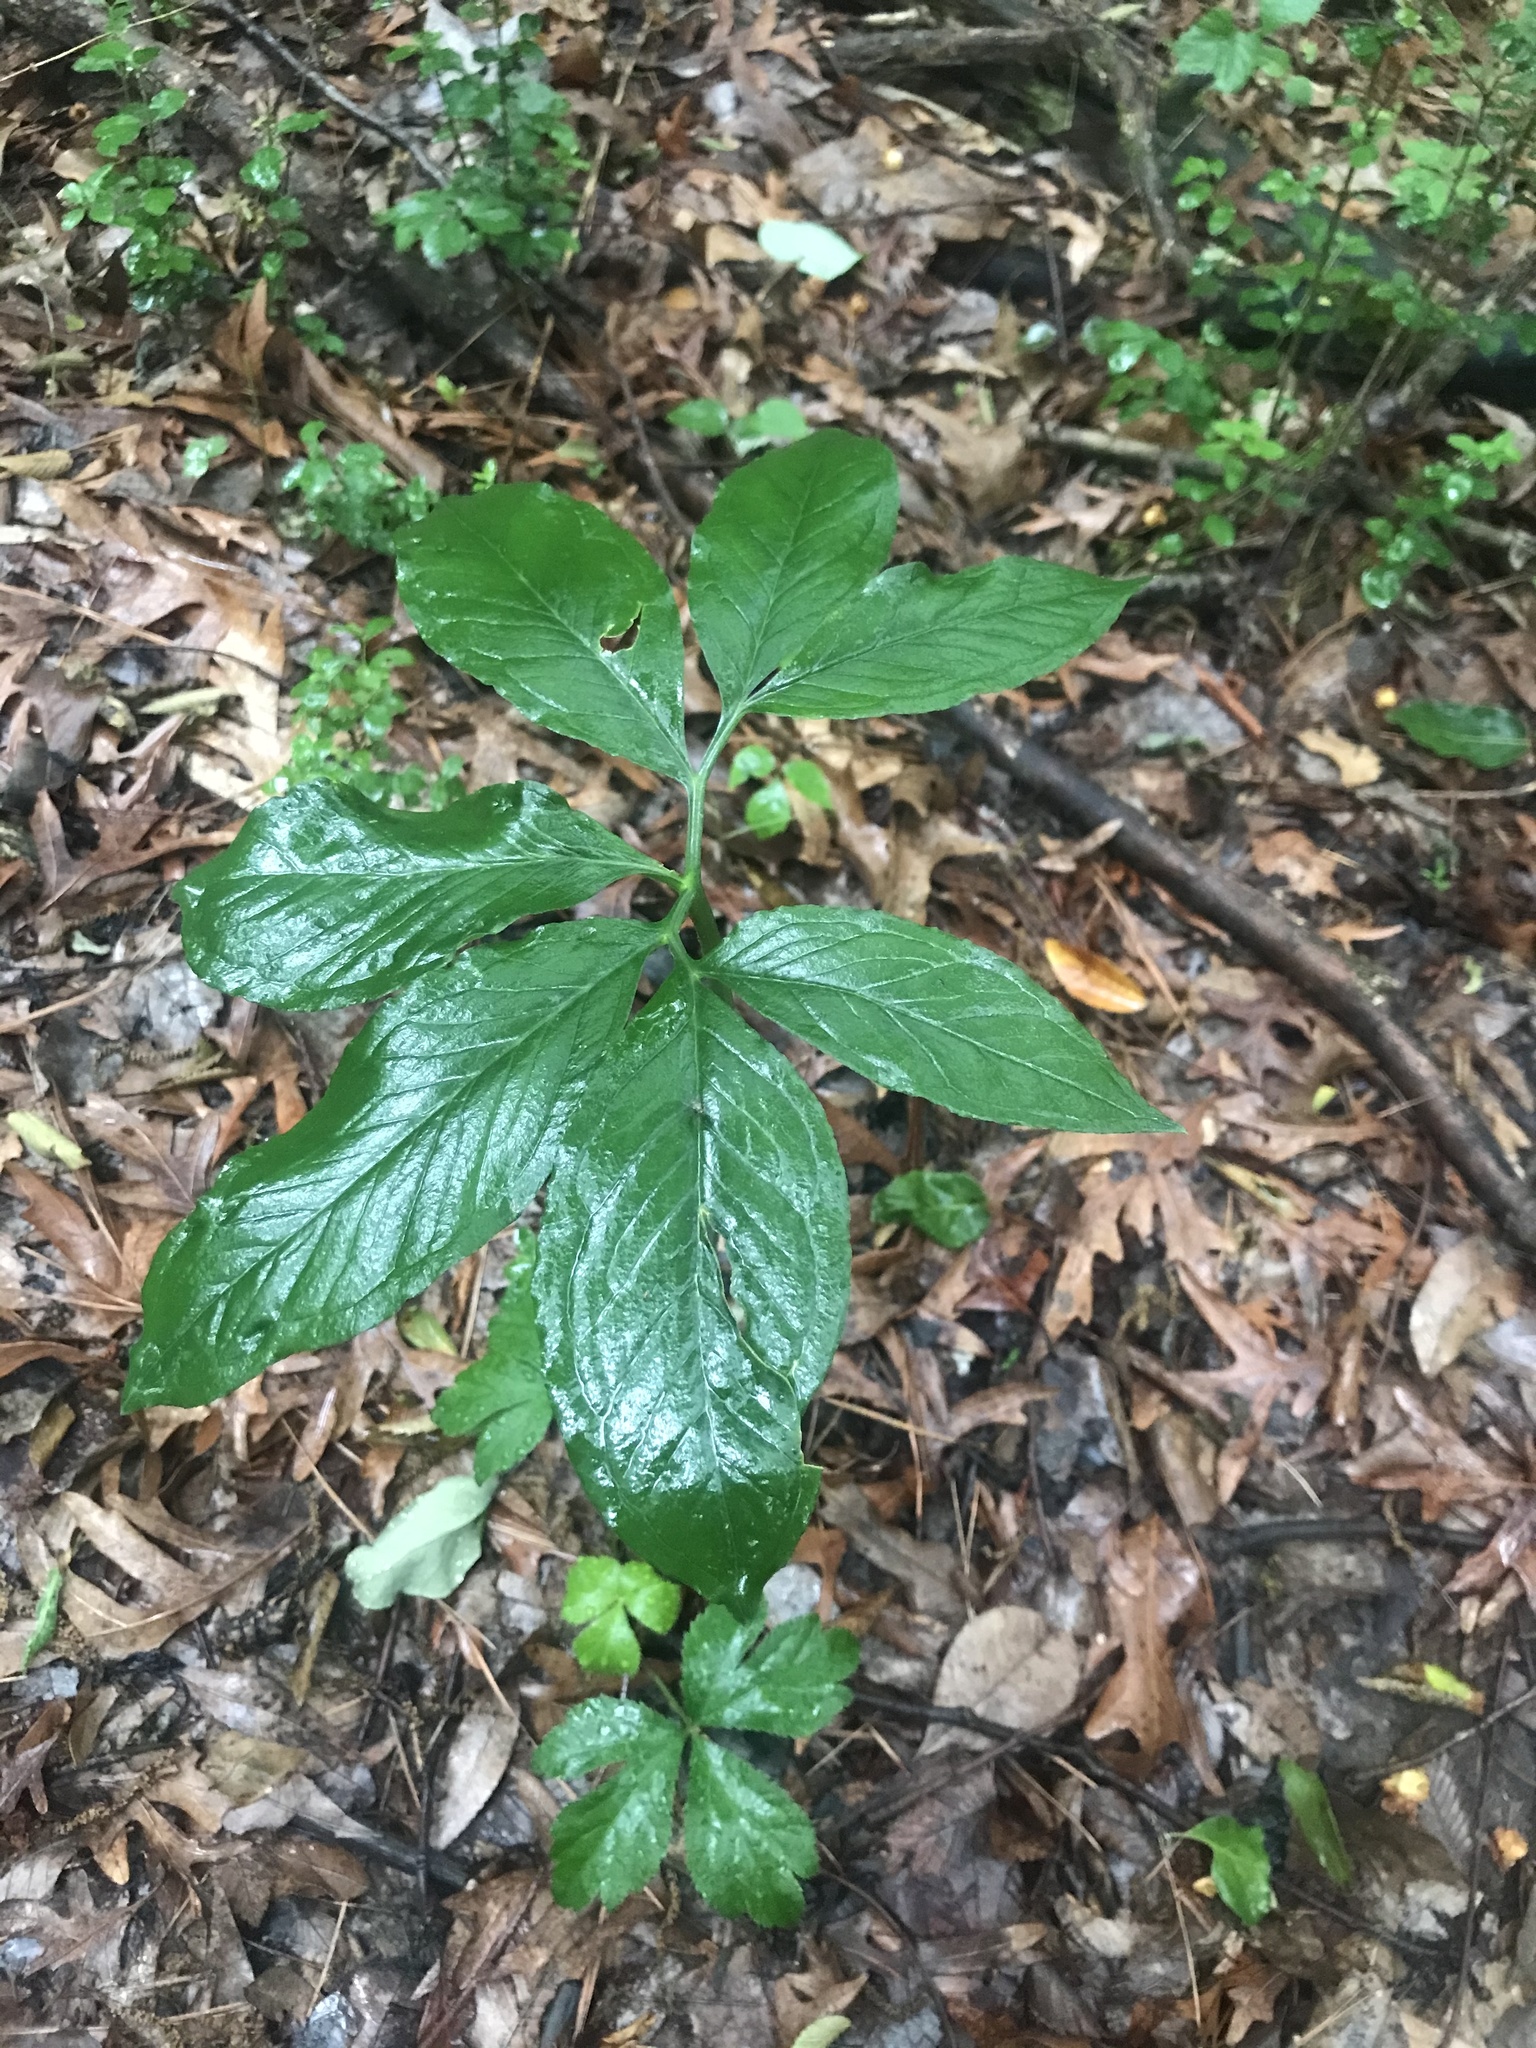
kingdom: Plantae
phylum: Tracheophyta
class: Liliopsida
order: Alismatales
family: Araceae
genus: Arisaema
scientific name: Arisaema dracontium
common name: Dragon-arum
